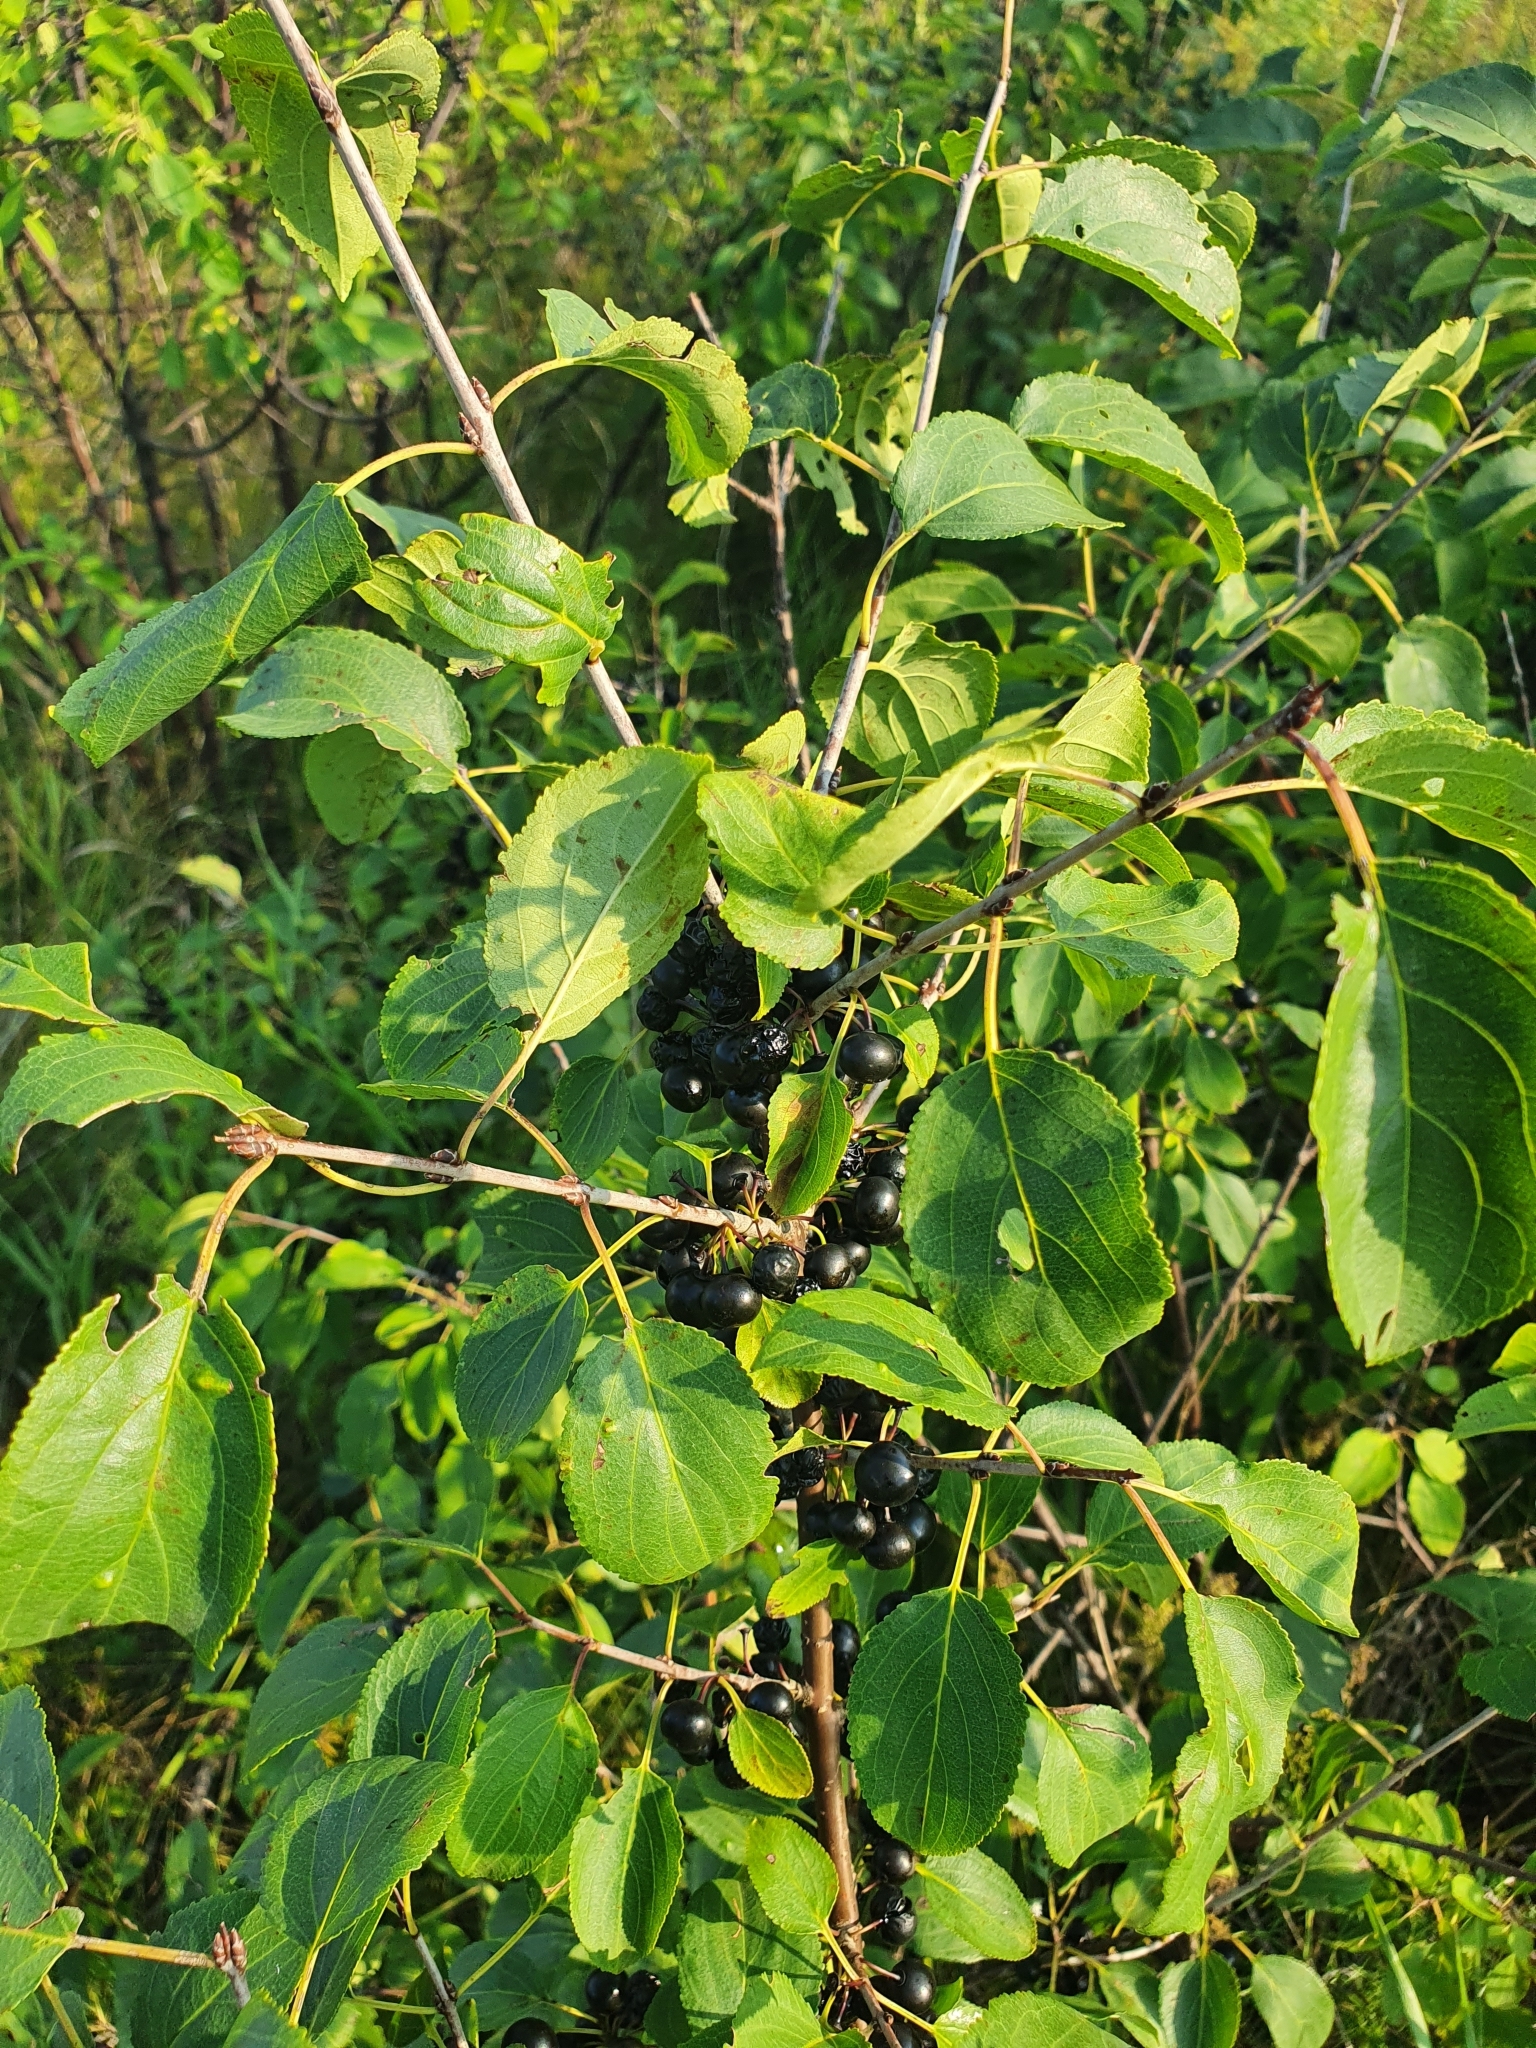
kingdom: Plantae
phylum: Tracheophyta
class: Magnoliopsida
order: Rosales
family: Rhamnaceae
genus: Rhamnus
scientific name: Rhamnus cathartica
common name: Common buckthorn
